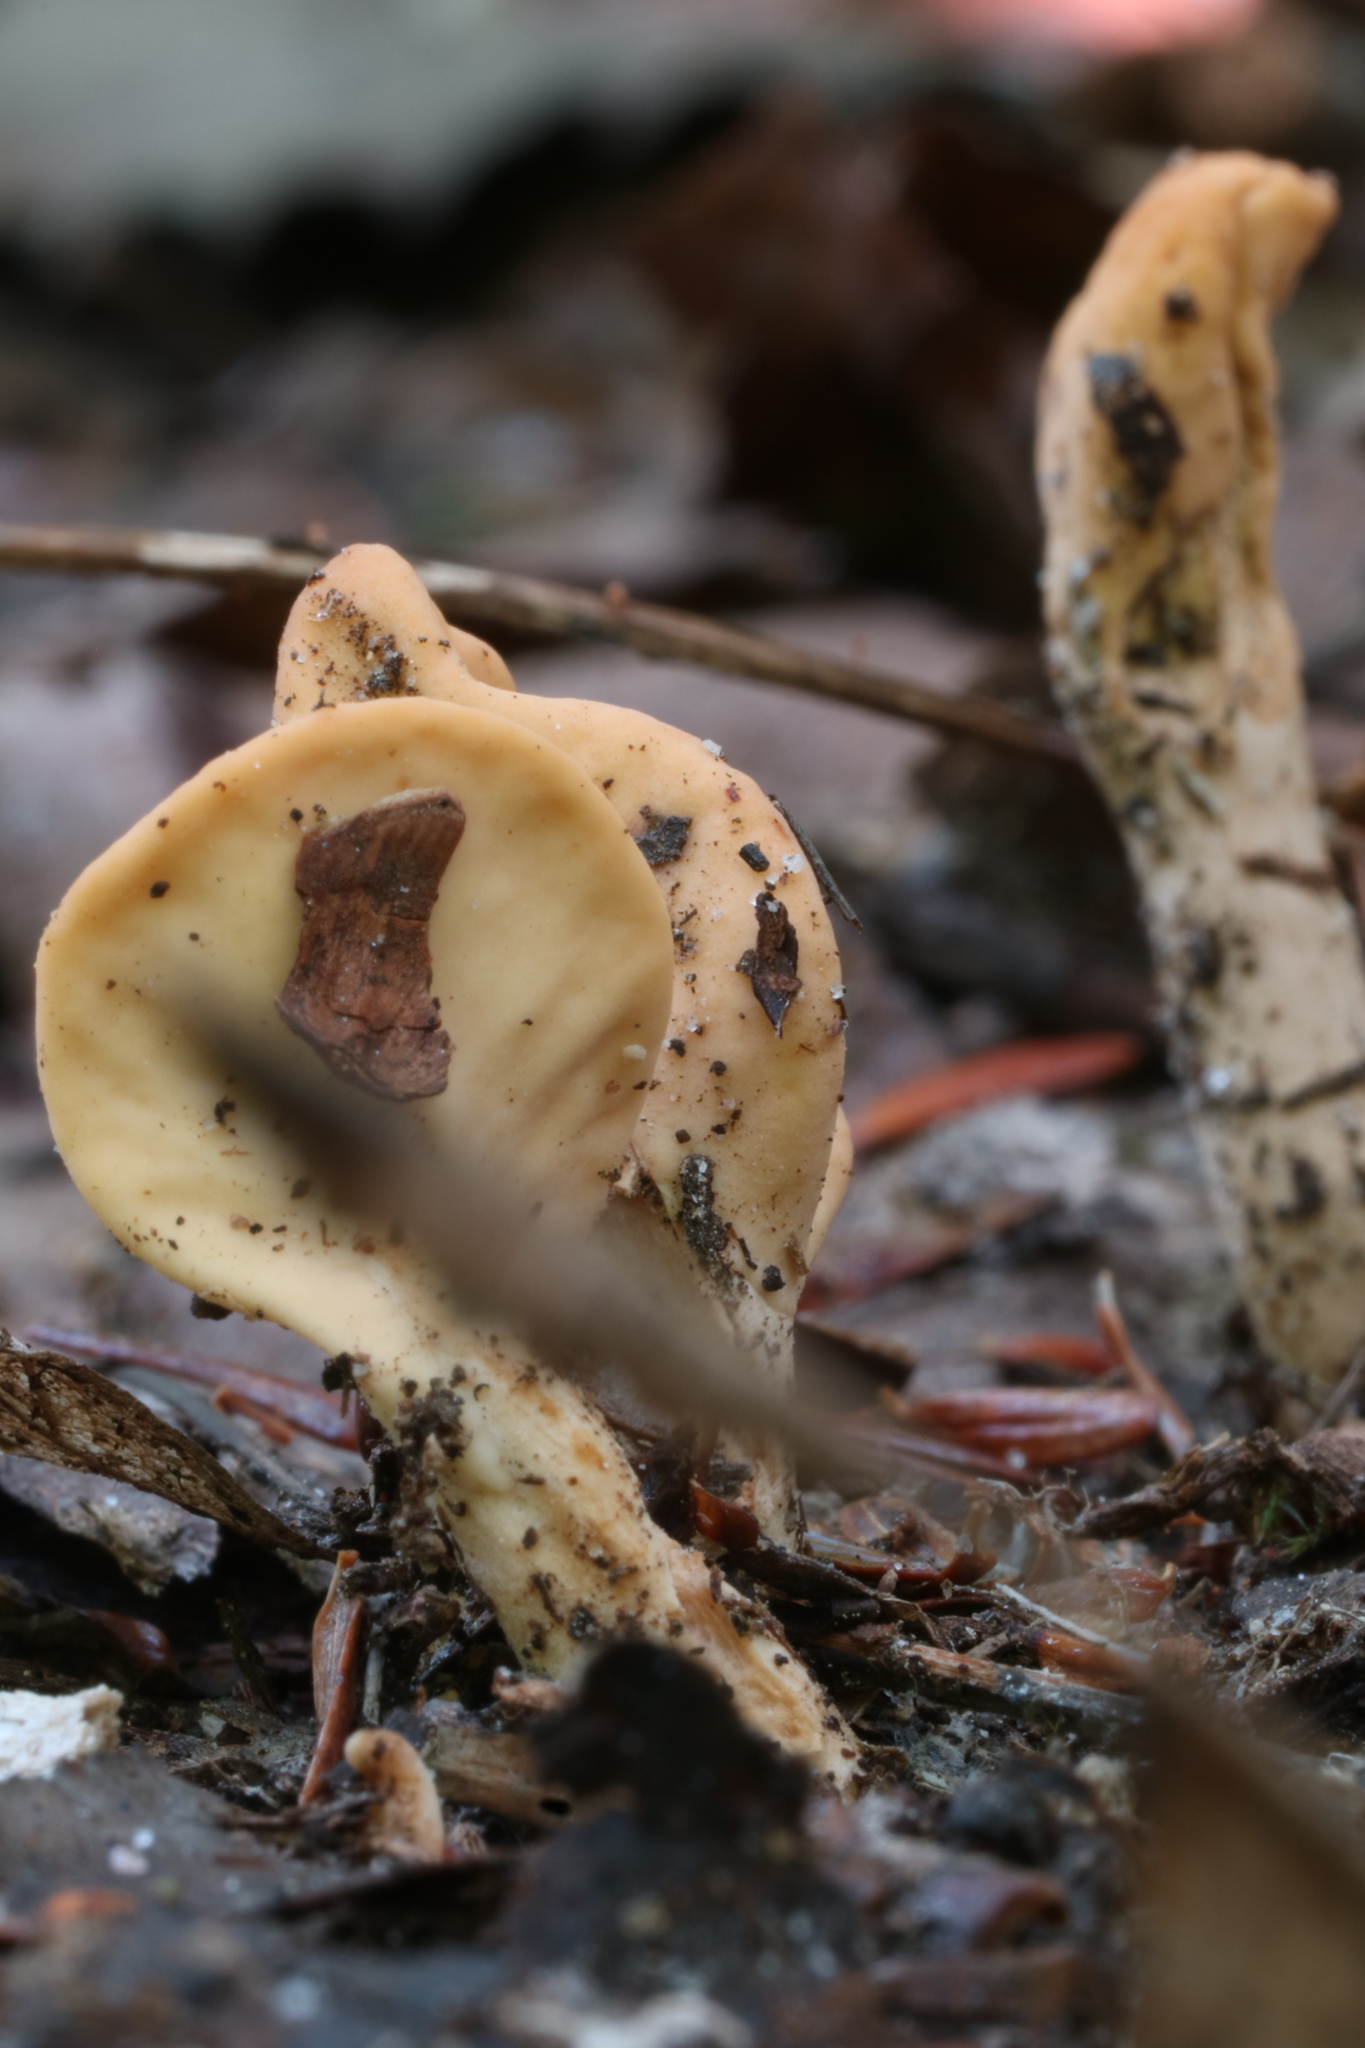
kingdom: Fungi
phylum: Ascomycota
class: Leotiomycetes
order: Rhytismatales
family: Cudoniaceae
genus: Spathulariopsis
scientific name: Spathulariopsis velutipes
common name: Velvet-foot fairy fan
